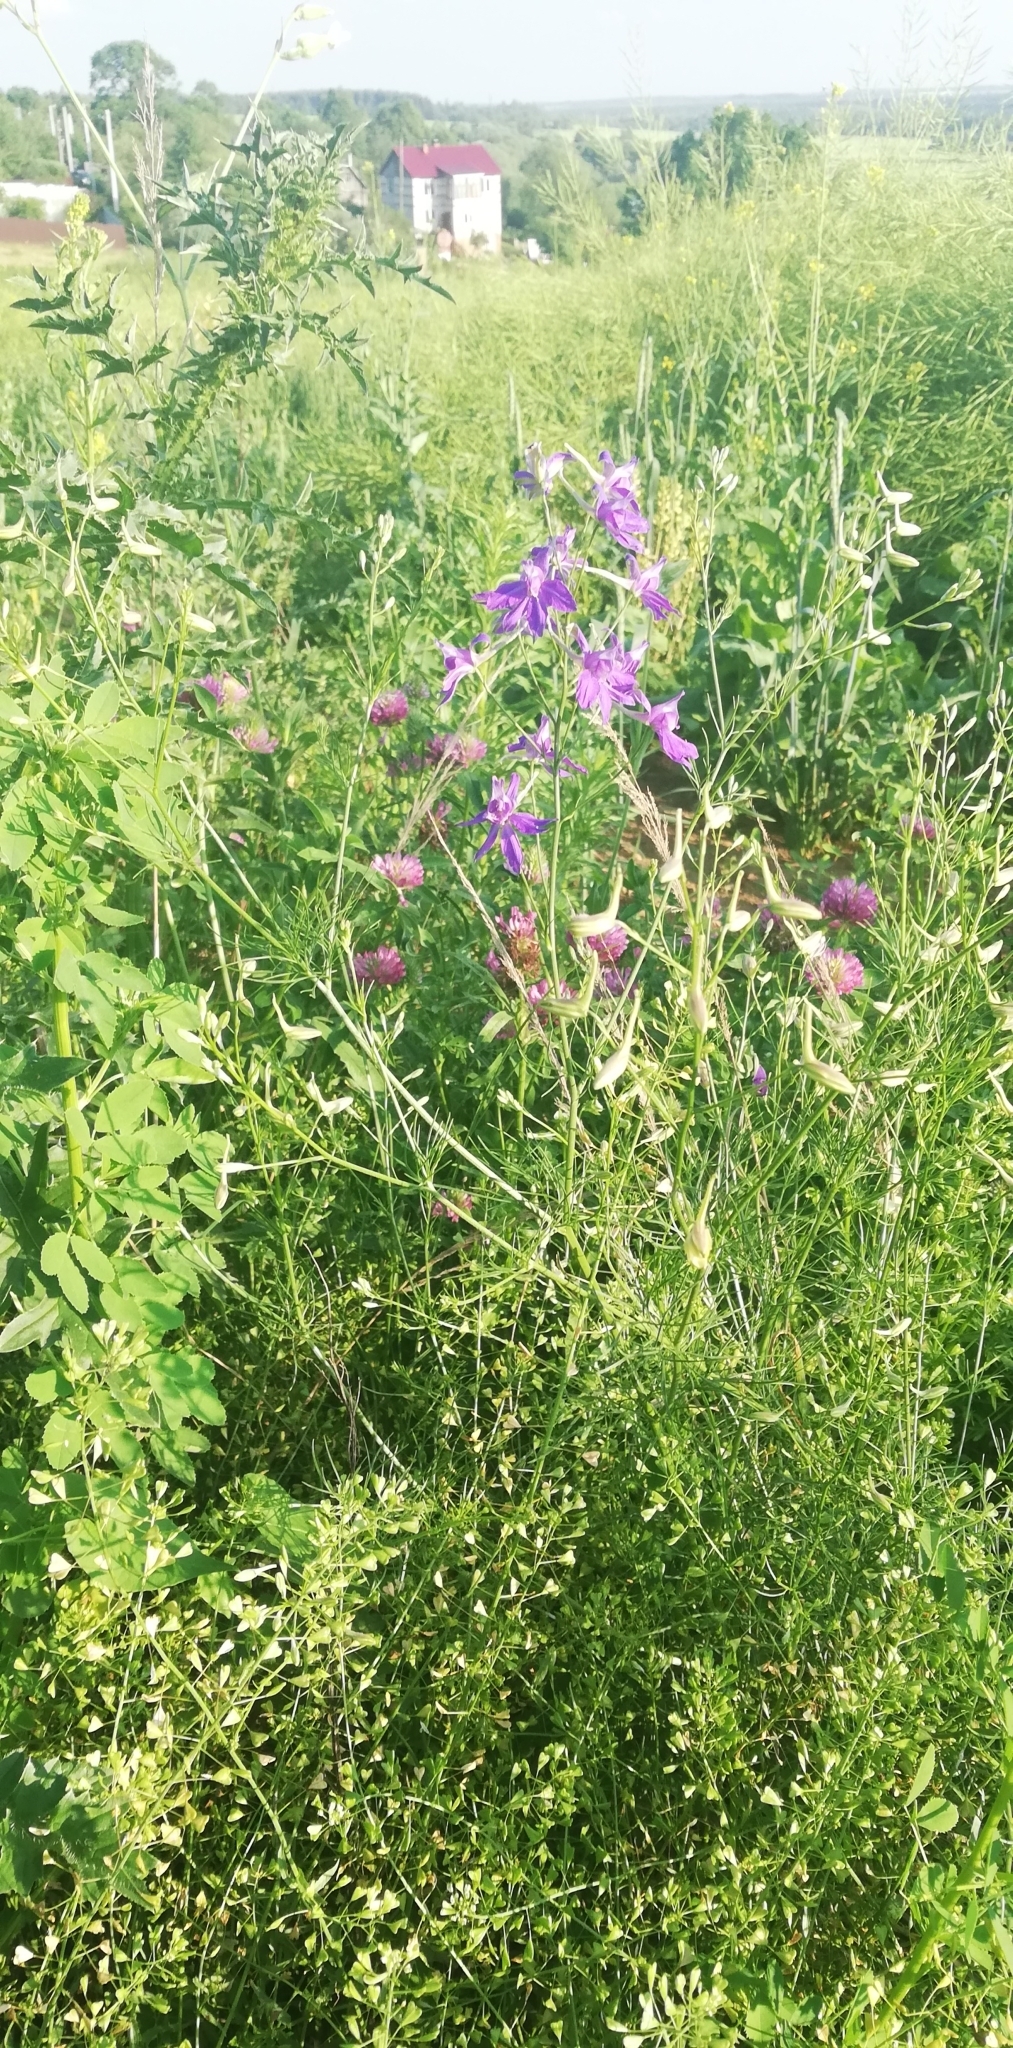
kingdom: Plantae
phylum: Tracheophyta
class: Magnoliopsida
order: Ranunculales
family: Ranunculaceae
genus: Delphinium
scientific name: Delphinium consolida
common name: Branching larkspur
